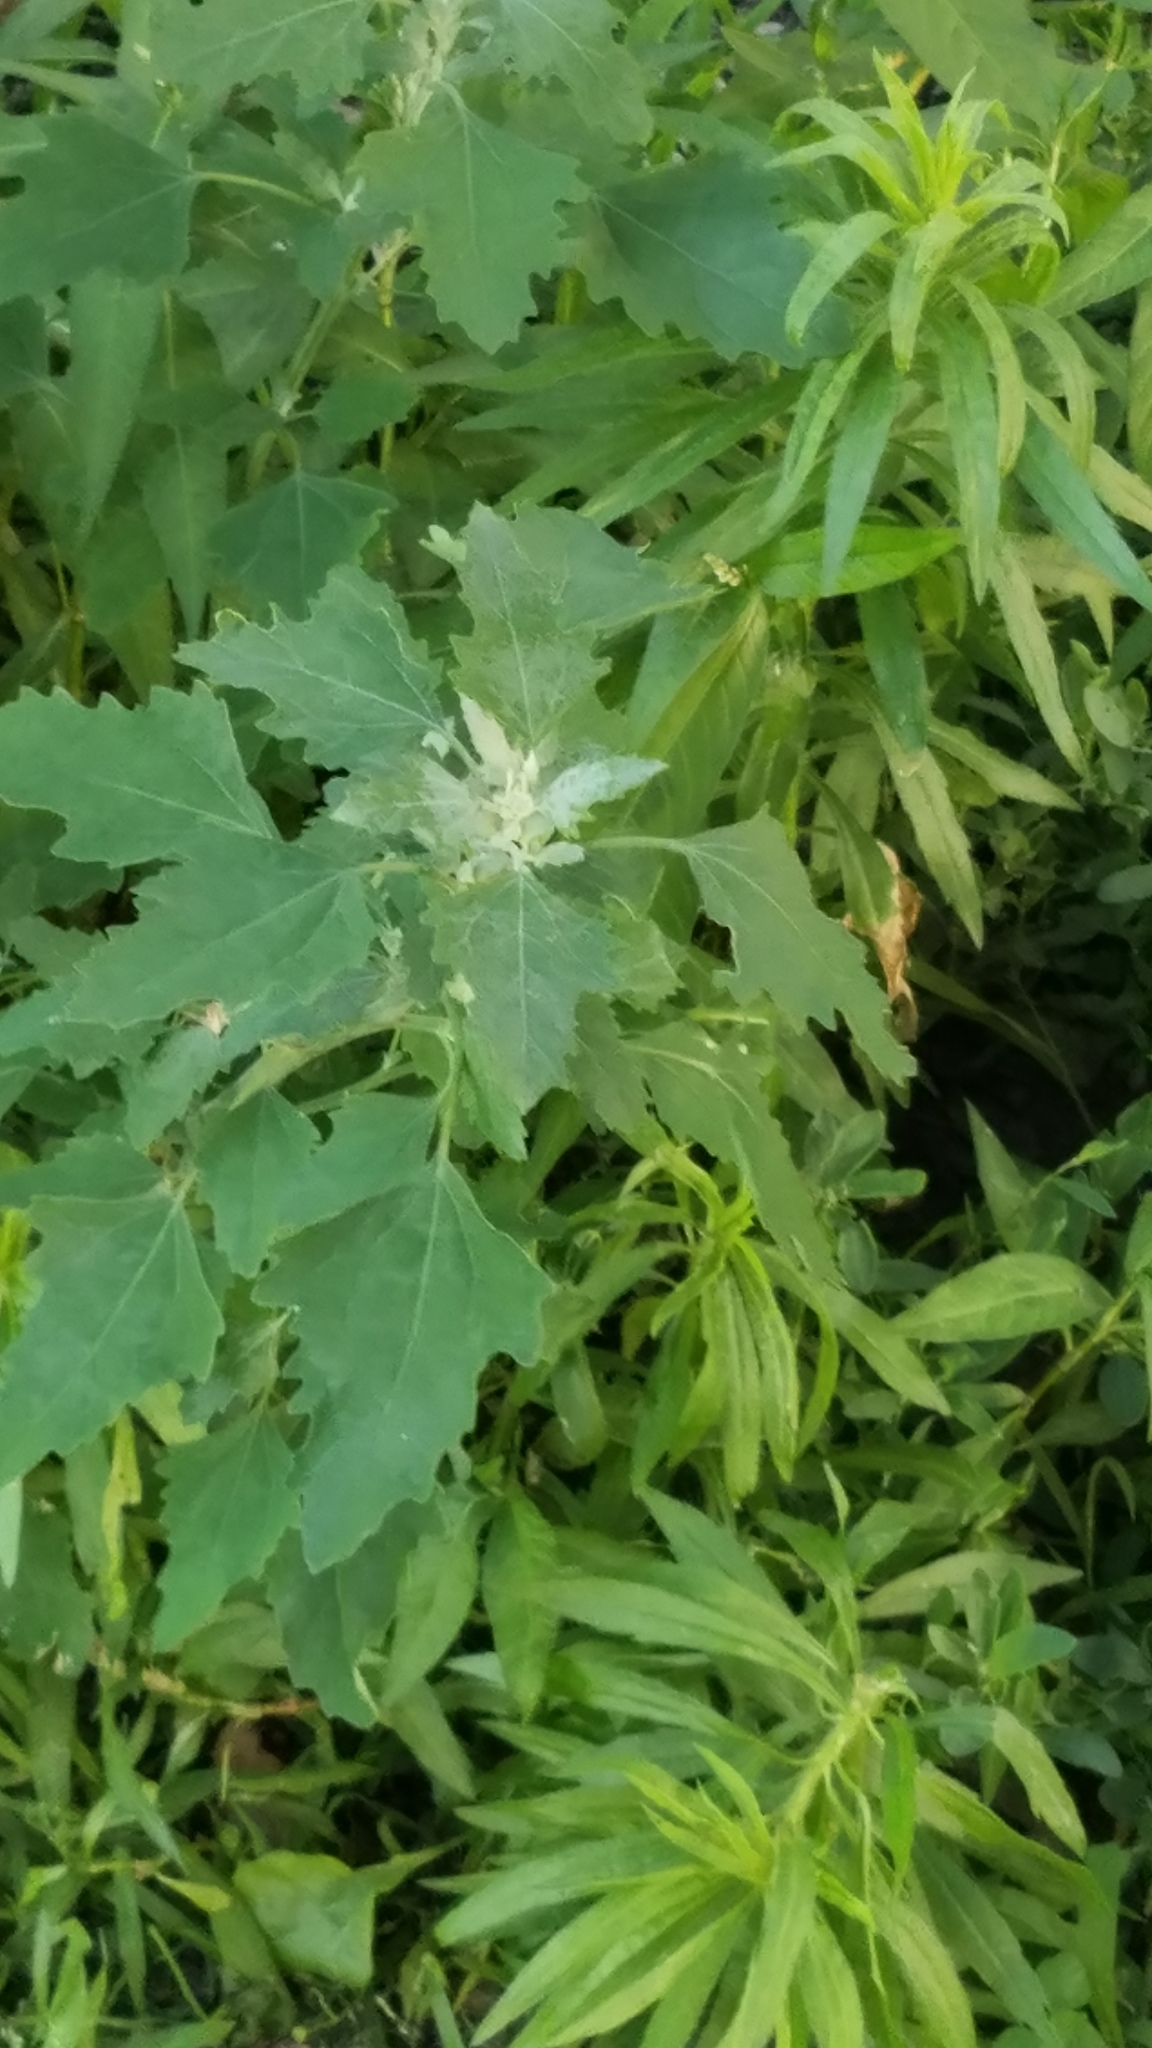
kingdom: Plantae
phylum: Tracheophyta
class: Magnoliopsida
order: Caryophyllales
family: Amaranthaceae
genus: Chenopodium
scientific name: Chenopodium album
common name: Fat-hen
